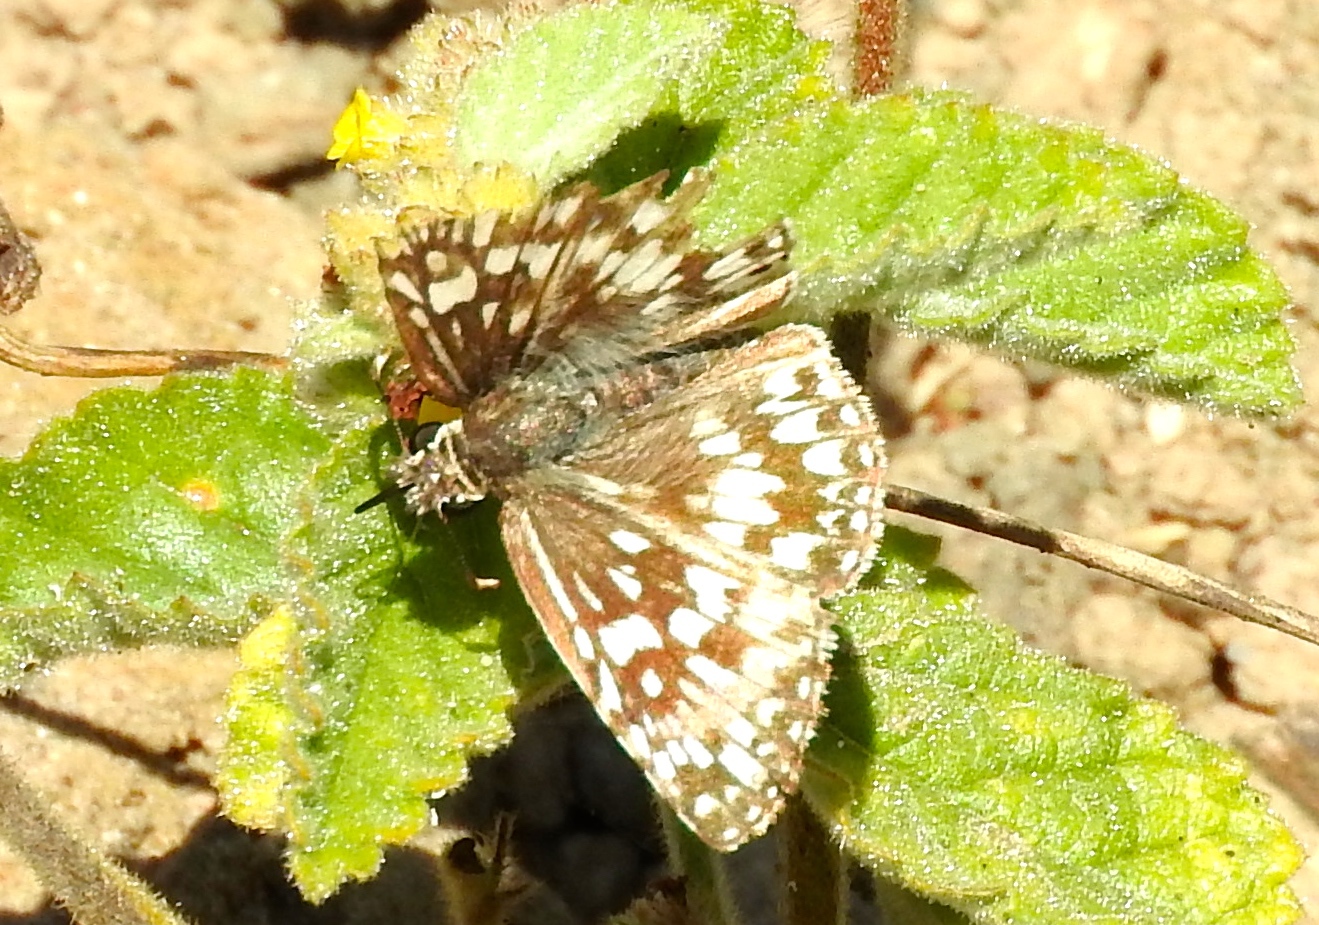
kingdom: Animalia
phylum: Arthropoda
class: Insecta
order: Lepidoptera
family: Hesperiidae
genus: Burnsius
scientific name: Burnsius
